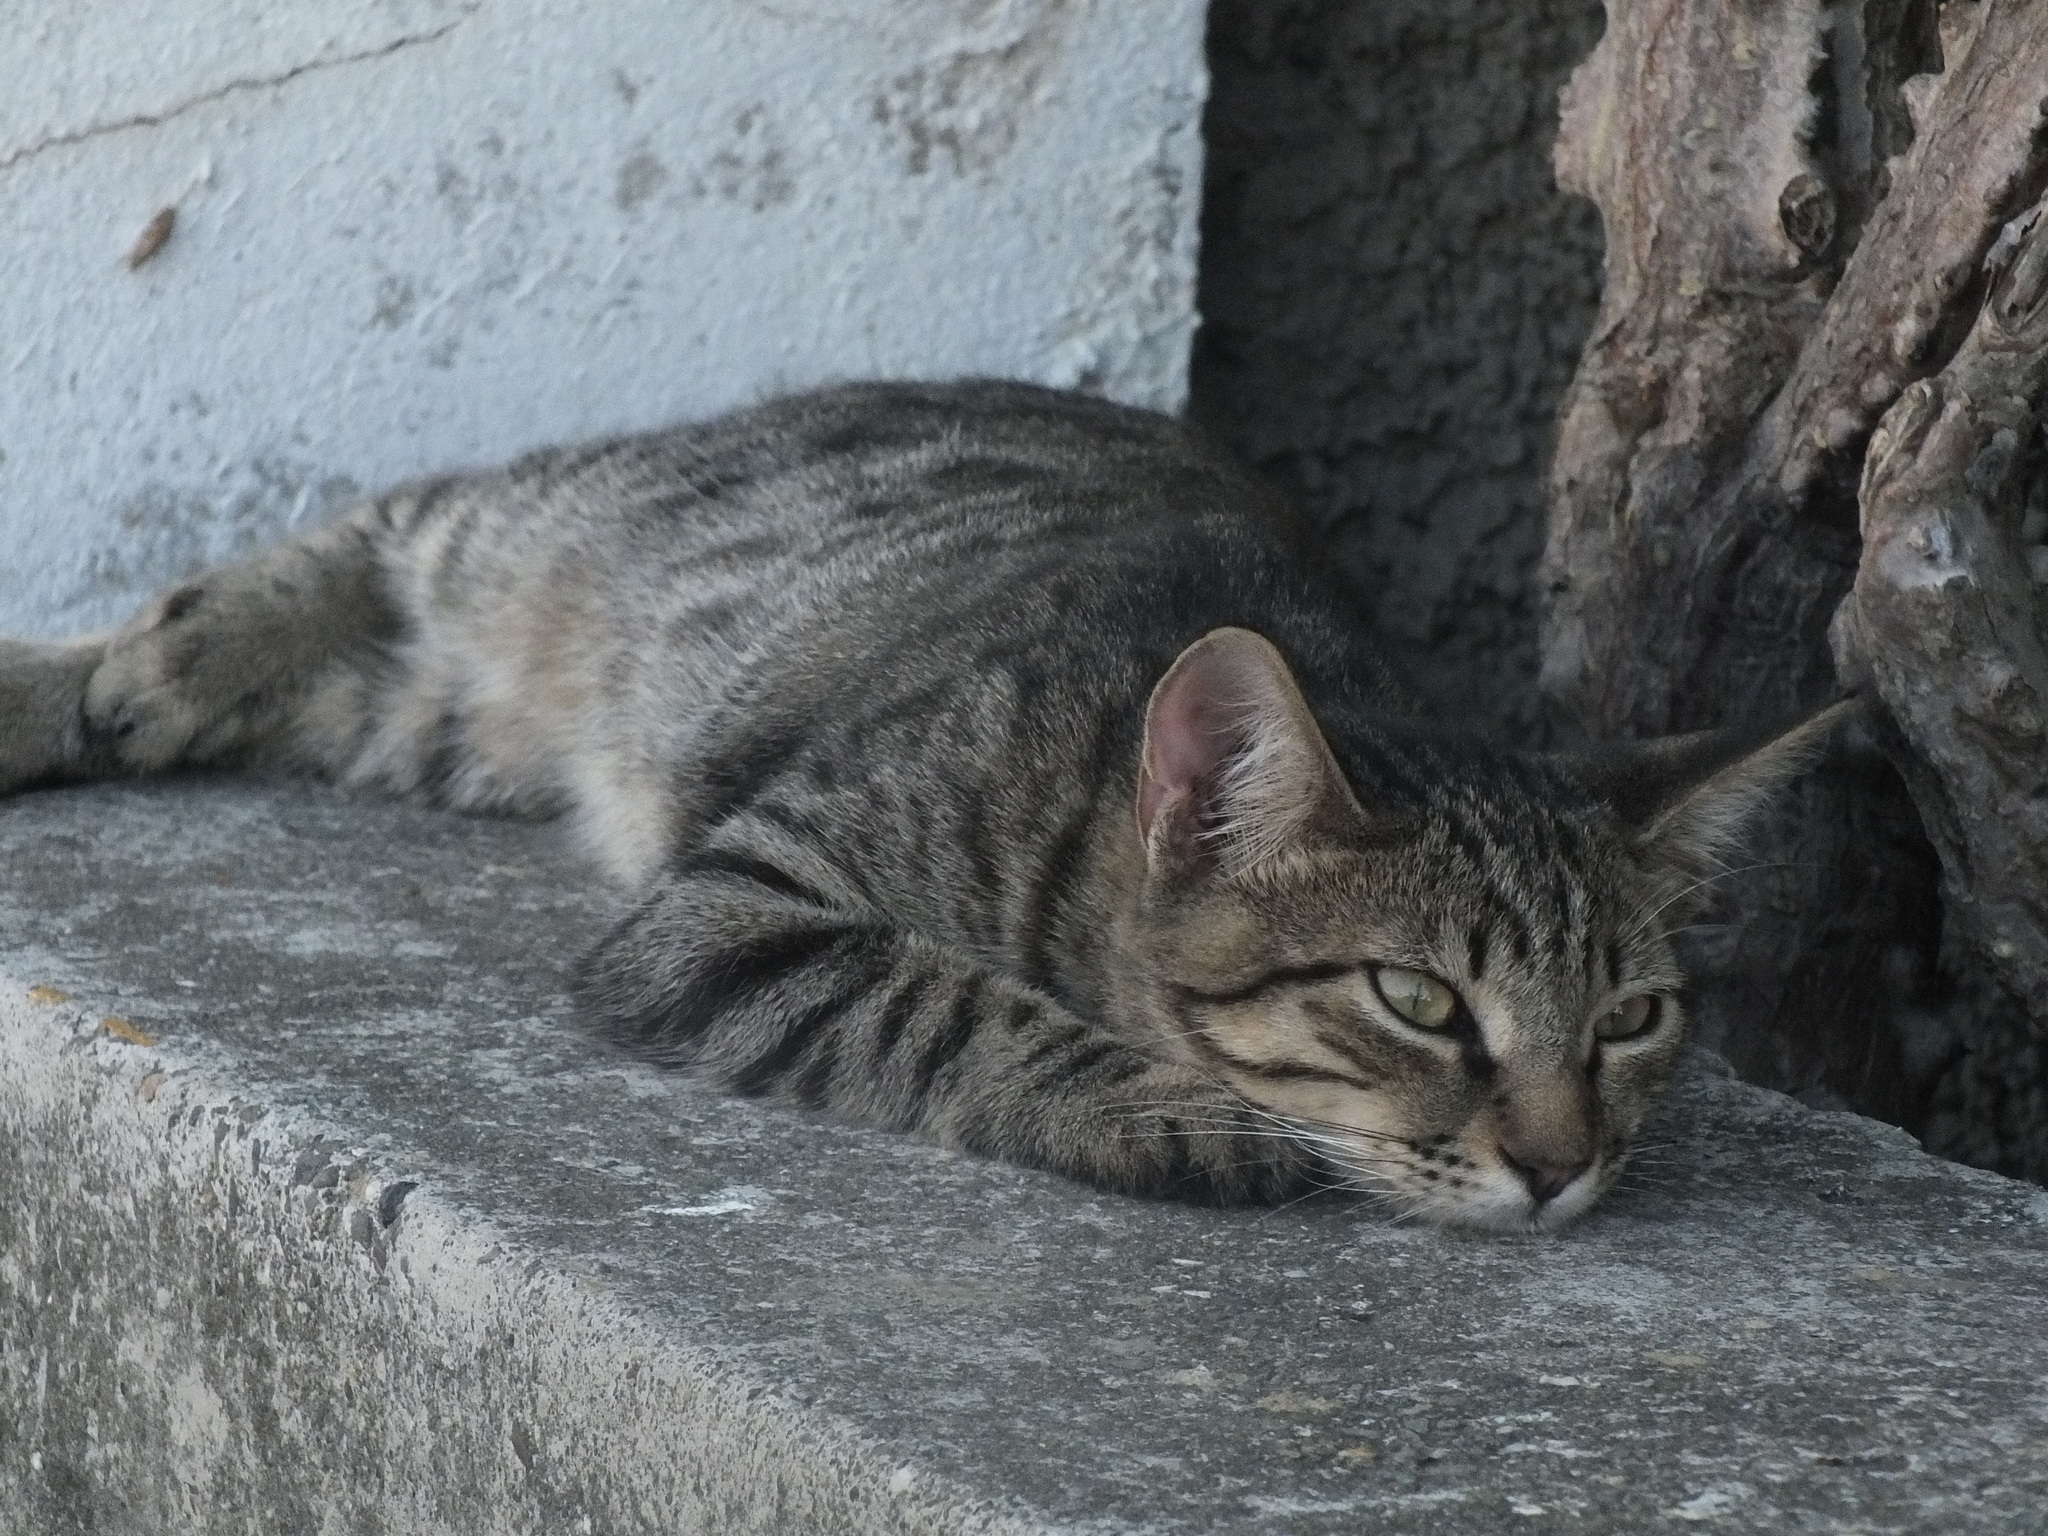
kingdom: Animalia
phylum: Chordata
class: Mammalia
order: Carnivora
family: Felidae
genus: Felis
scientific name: Felis catus
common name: Domestic cat
